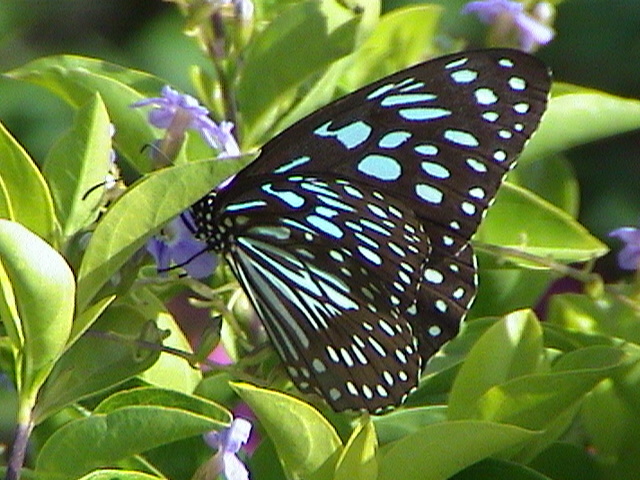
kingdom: Animalia
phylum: Arthropoda
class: Insecta
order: Lepidoptera
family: Nymphalidae
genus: Tirumala
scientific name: Tirumala septentrionis
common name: Dark blue tiger butterfly
